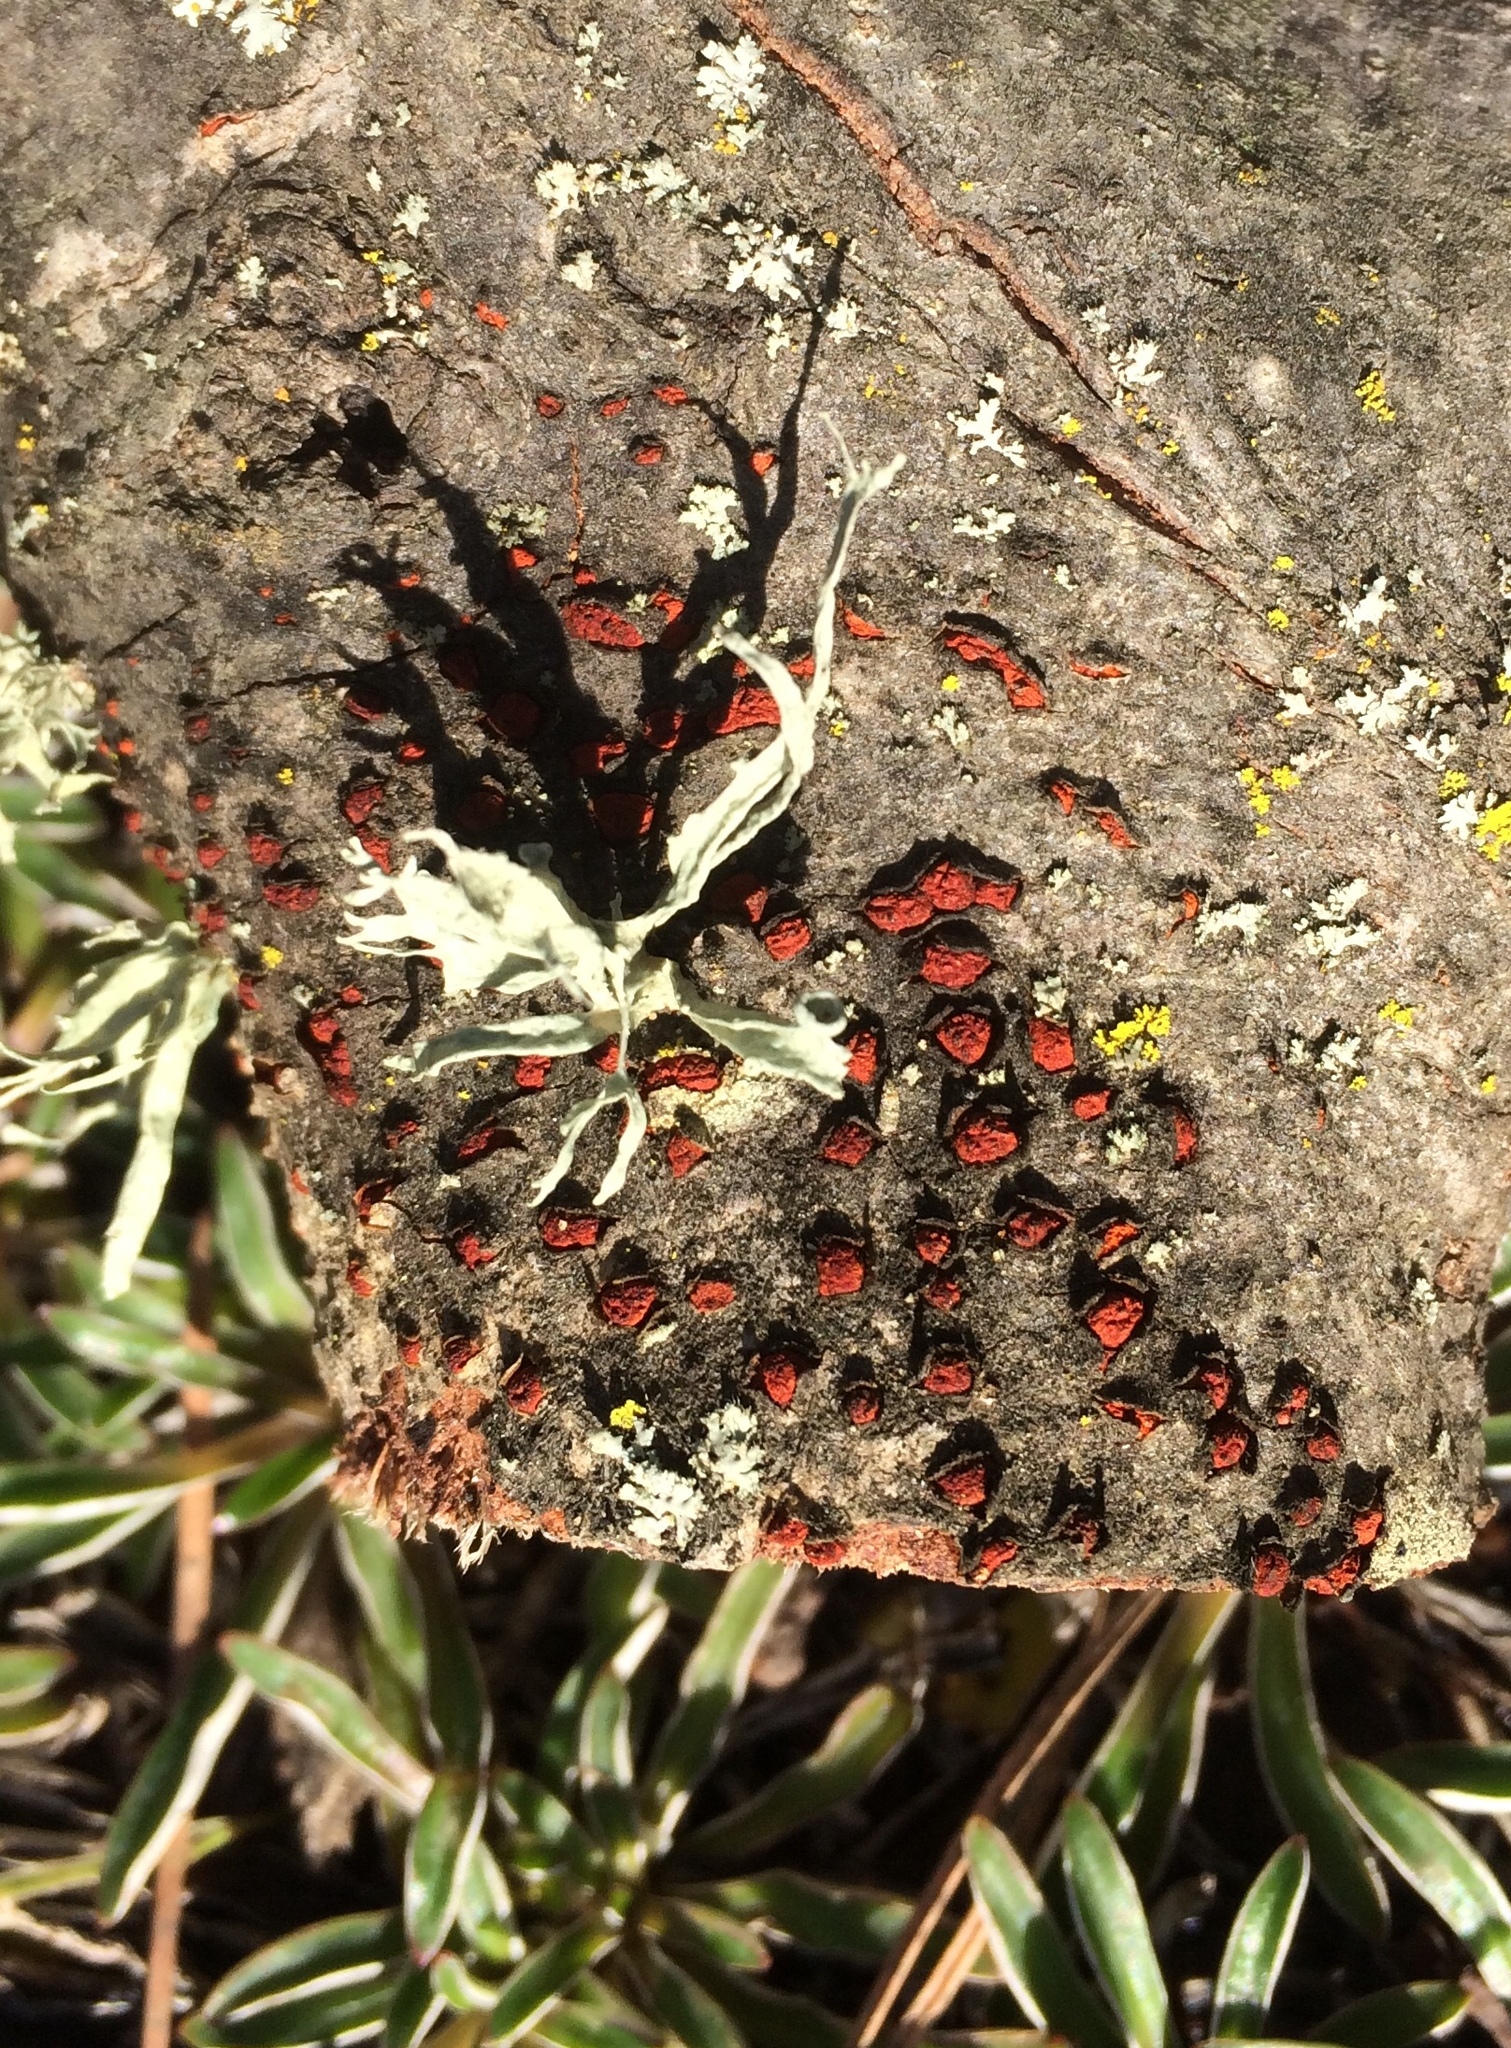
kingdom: Fungi
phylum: Ascomycota
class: Sordariomycetes
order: Diaporthales
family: Cryphonectriaceae
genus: Amphilogia
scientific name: Amphilogia gyrosa
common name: Orange hobnail canker
